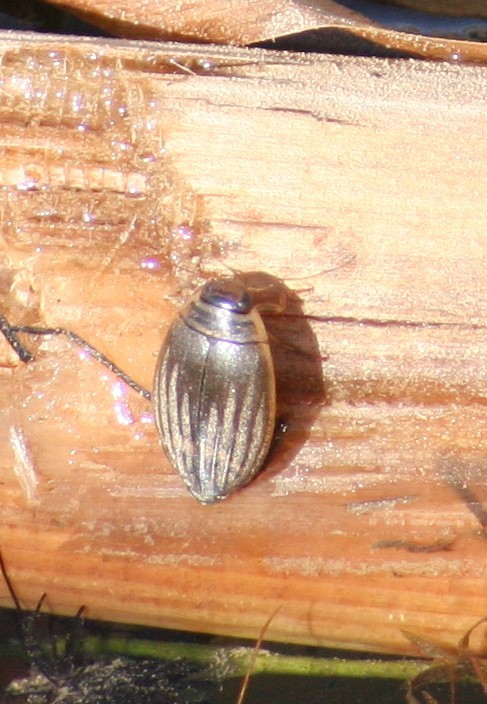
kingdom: Animalia
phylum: Arthropoda
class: Insecta
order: Coleoptera
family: Dytiscidae
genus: Acilius
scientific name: Acilius semisulcatus
